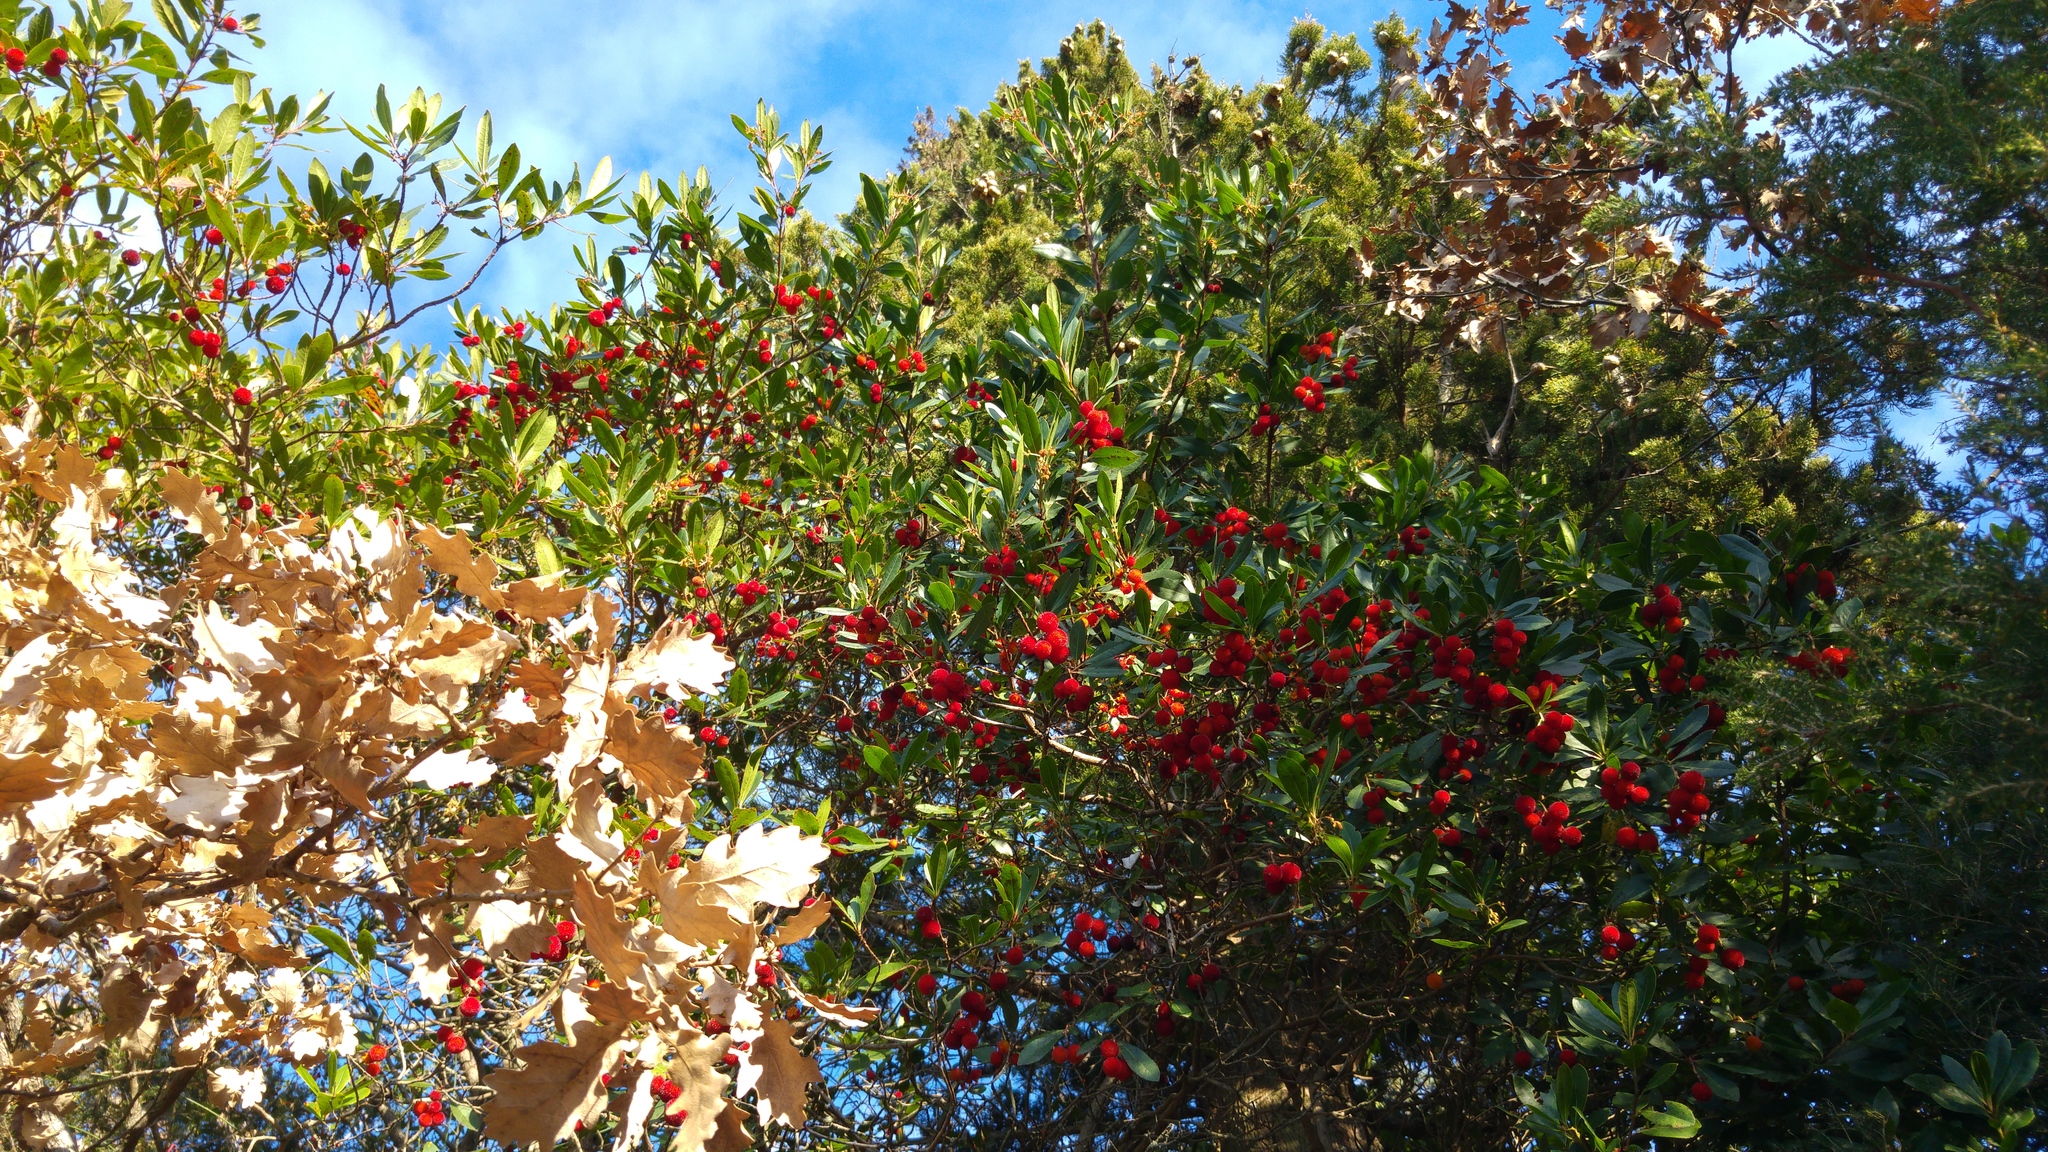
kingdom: Plantae
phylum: Tracheophyta
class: Magnoliopsida
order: Ericales
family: Ericaceae
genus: Arbutus
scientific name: Arbutus unedo
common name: Strawberry-tree
